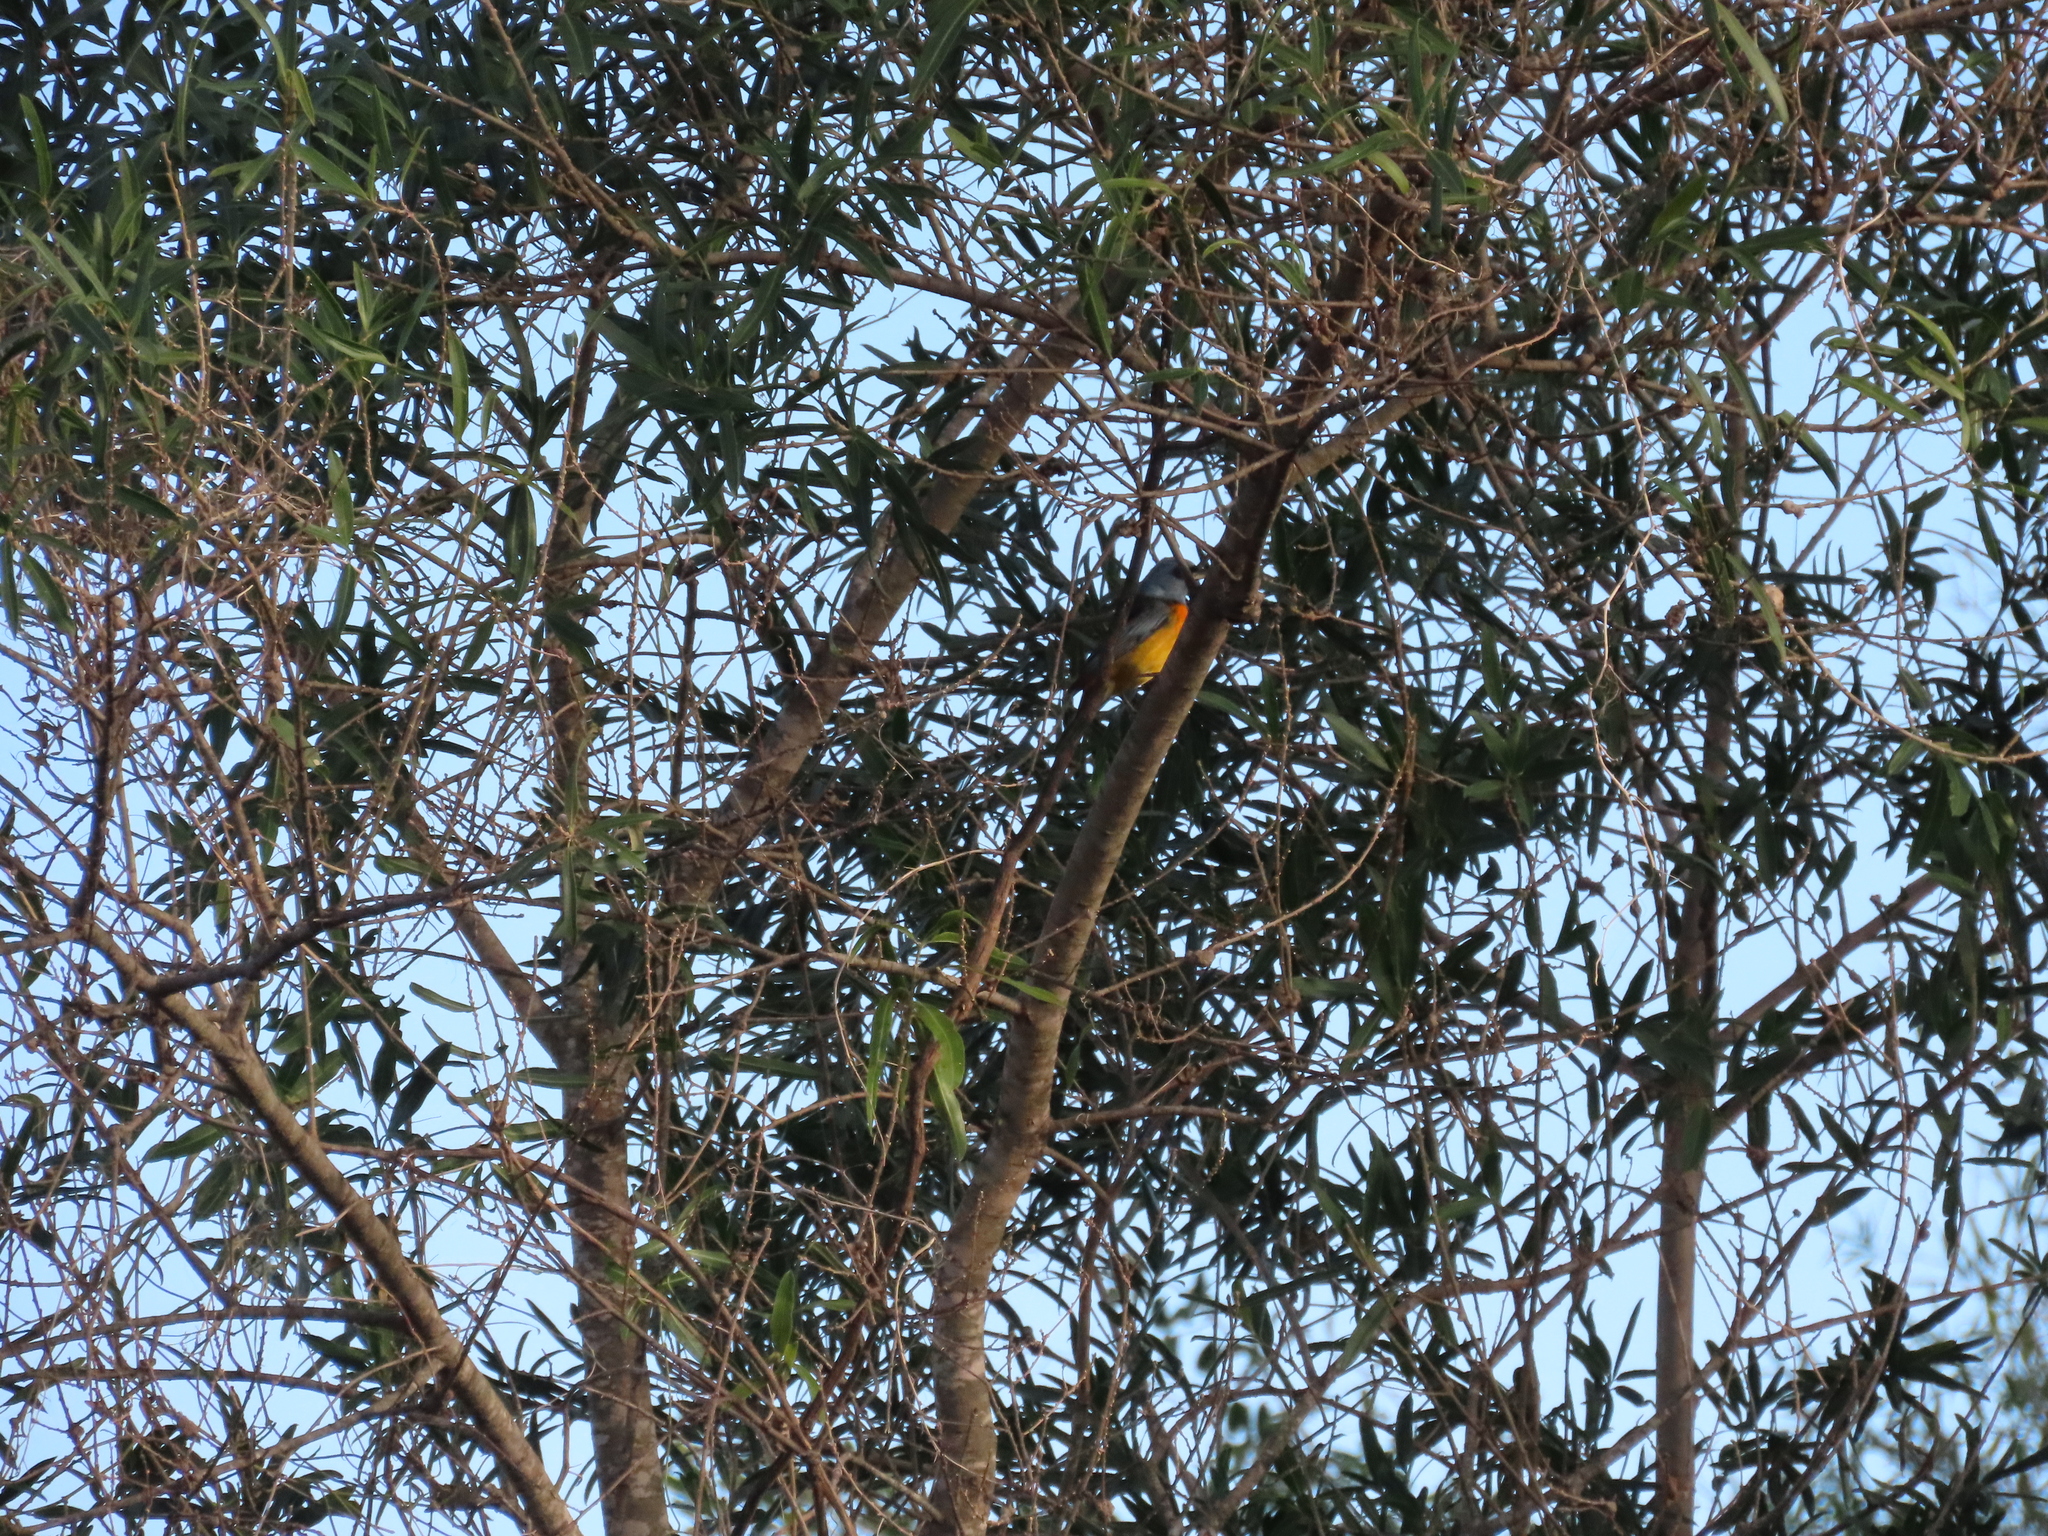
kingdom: Animalia
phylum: Chordata
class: Aves
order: Passeriformes
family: Thraupidae
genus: Rauenia
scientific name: Rauenia bonariensis
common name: Blue-and-yellow tanager
